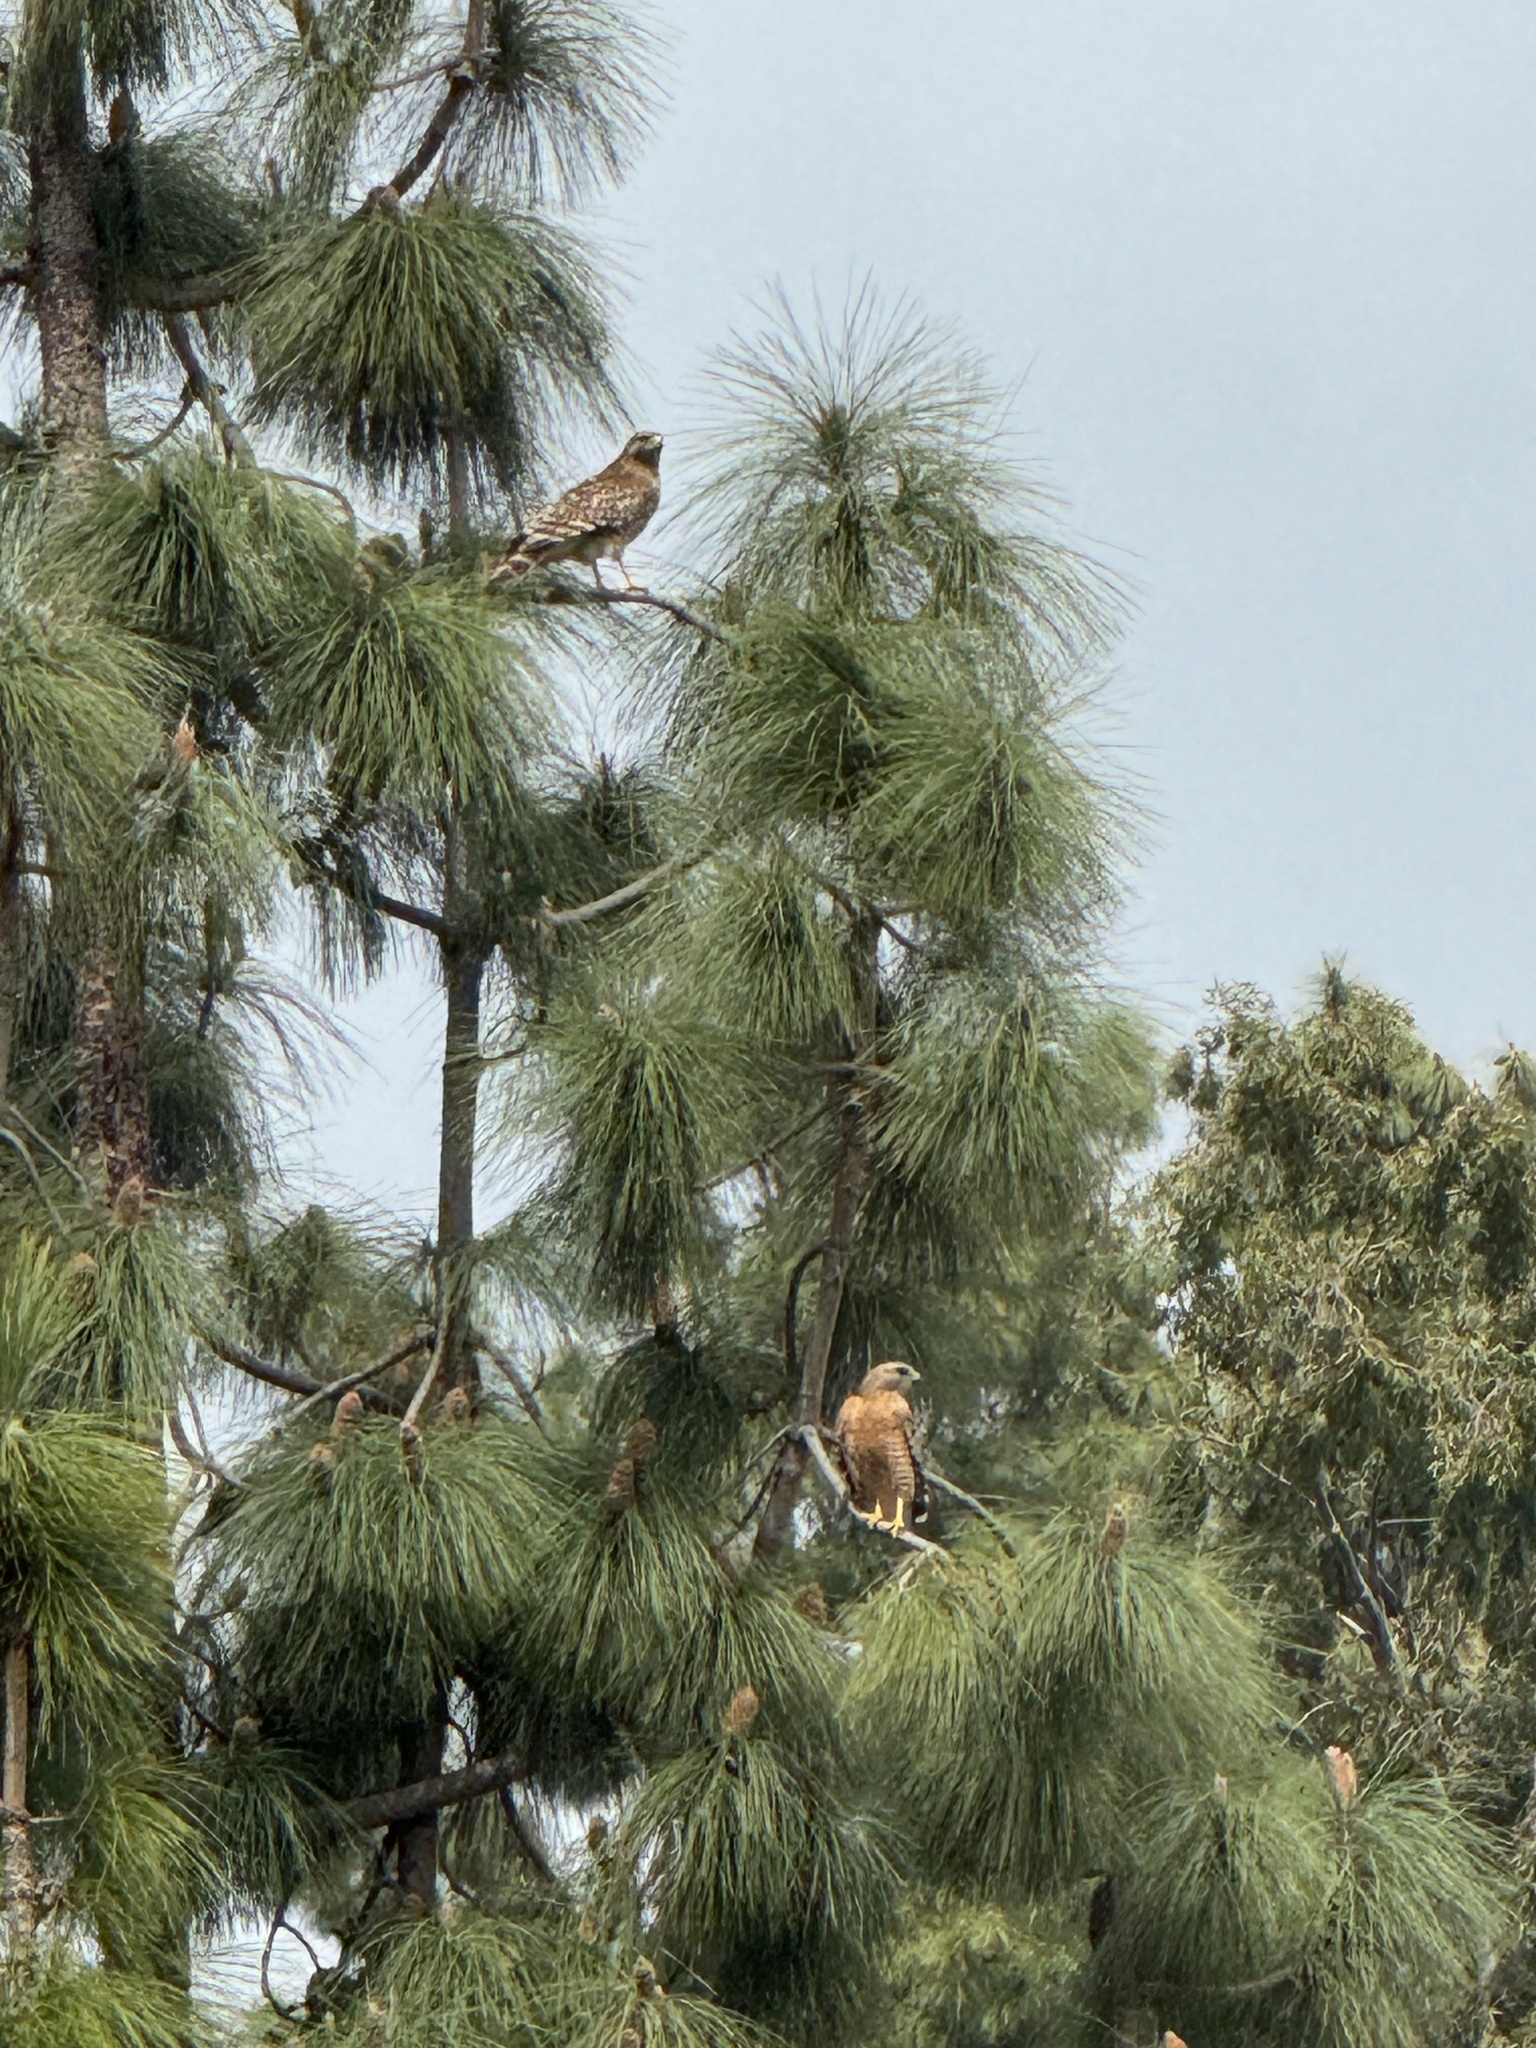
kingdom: Animalia
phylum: Chordata
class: Aves
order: Accipitriformes
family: Accipitridae
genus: Buteo
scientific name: Buteo lineatus
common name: Red-shouldered hawk
